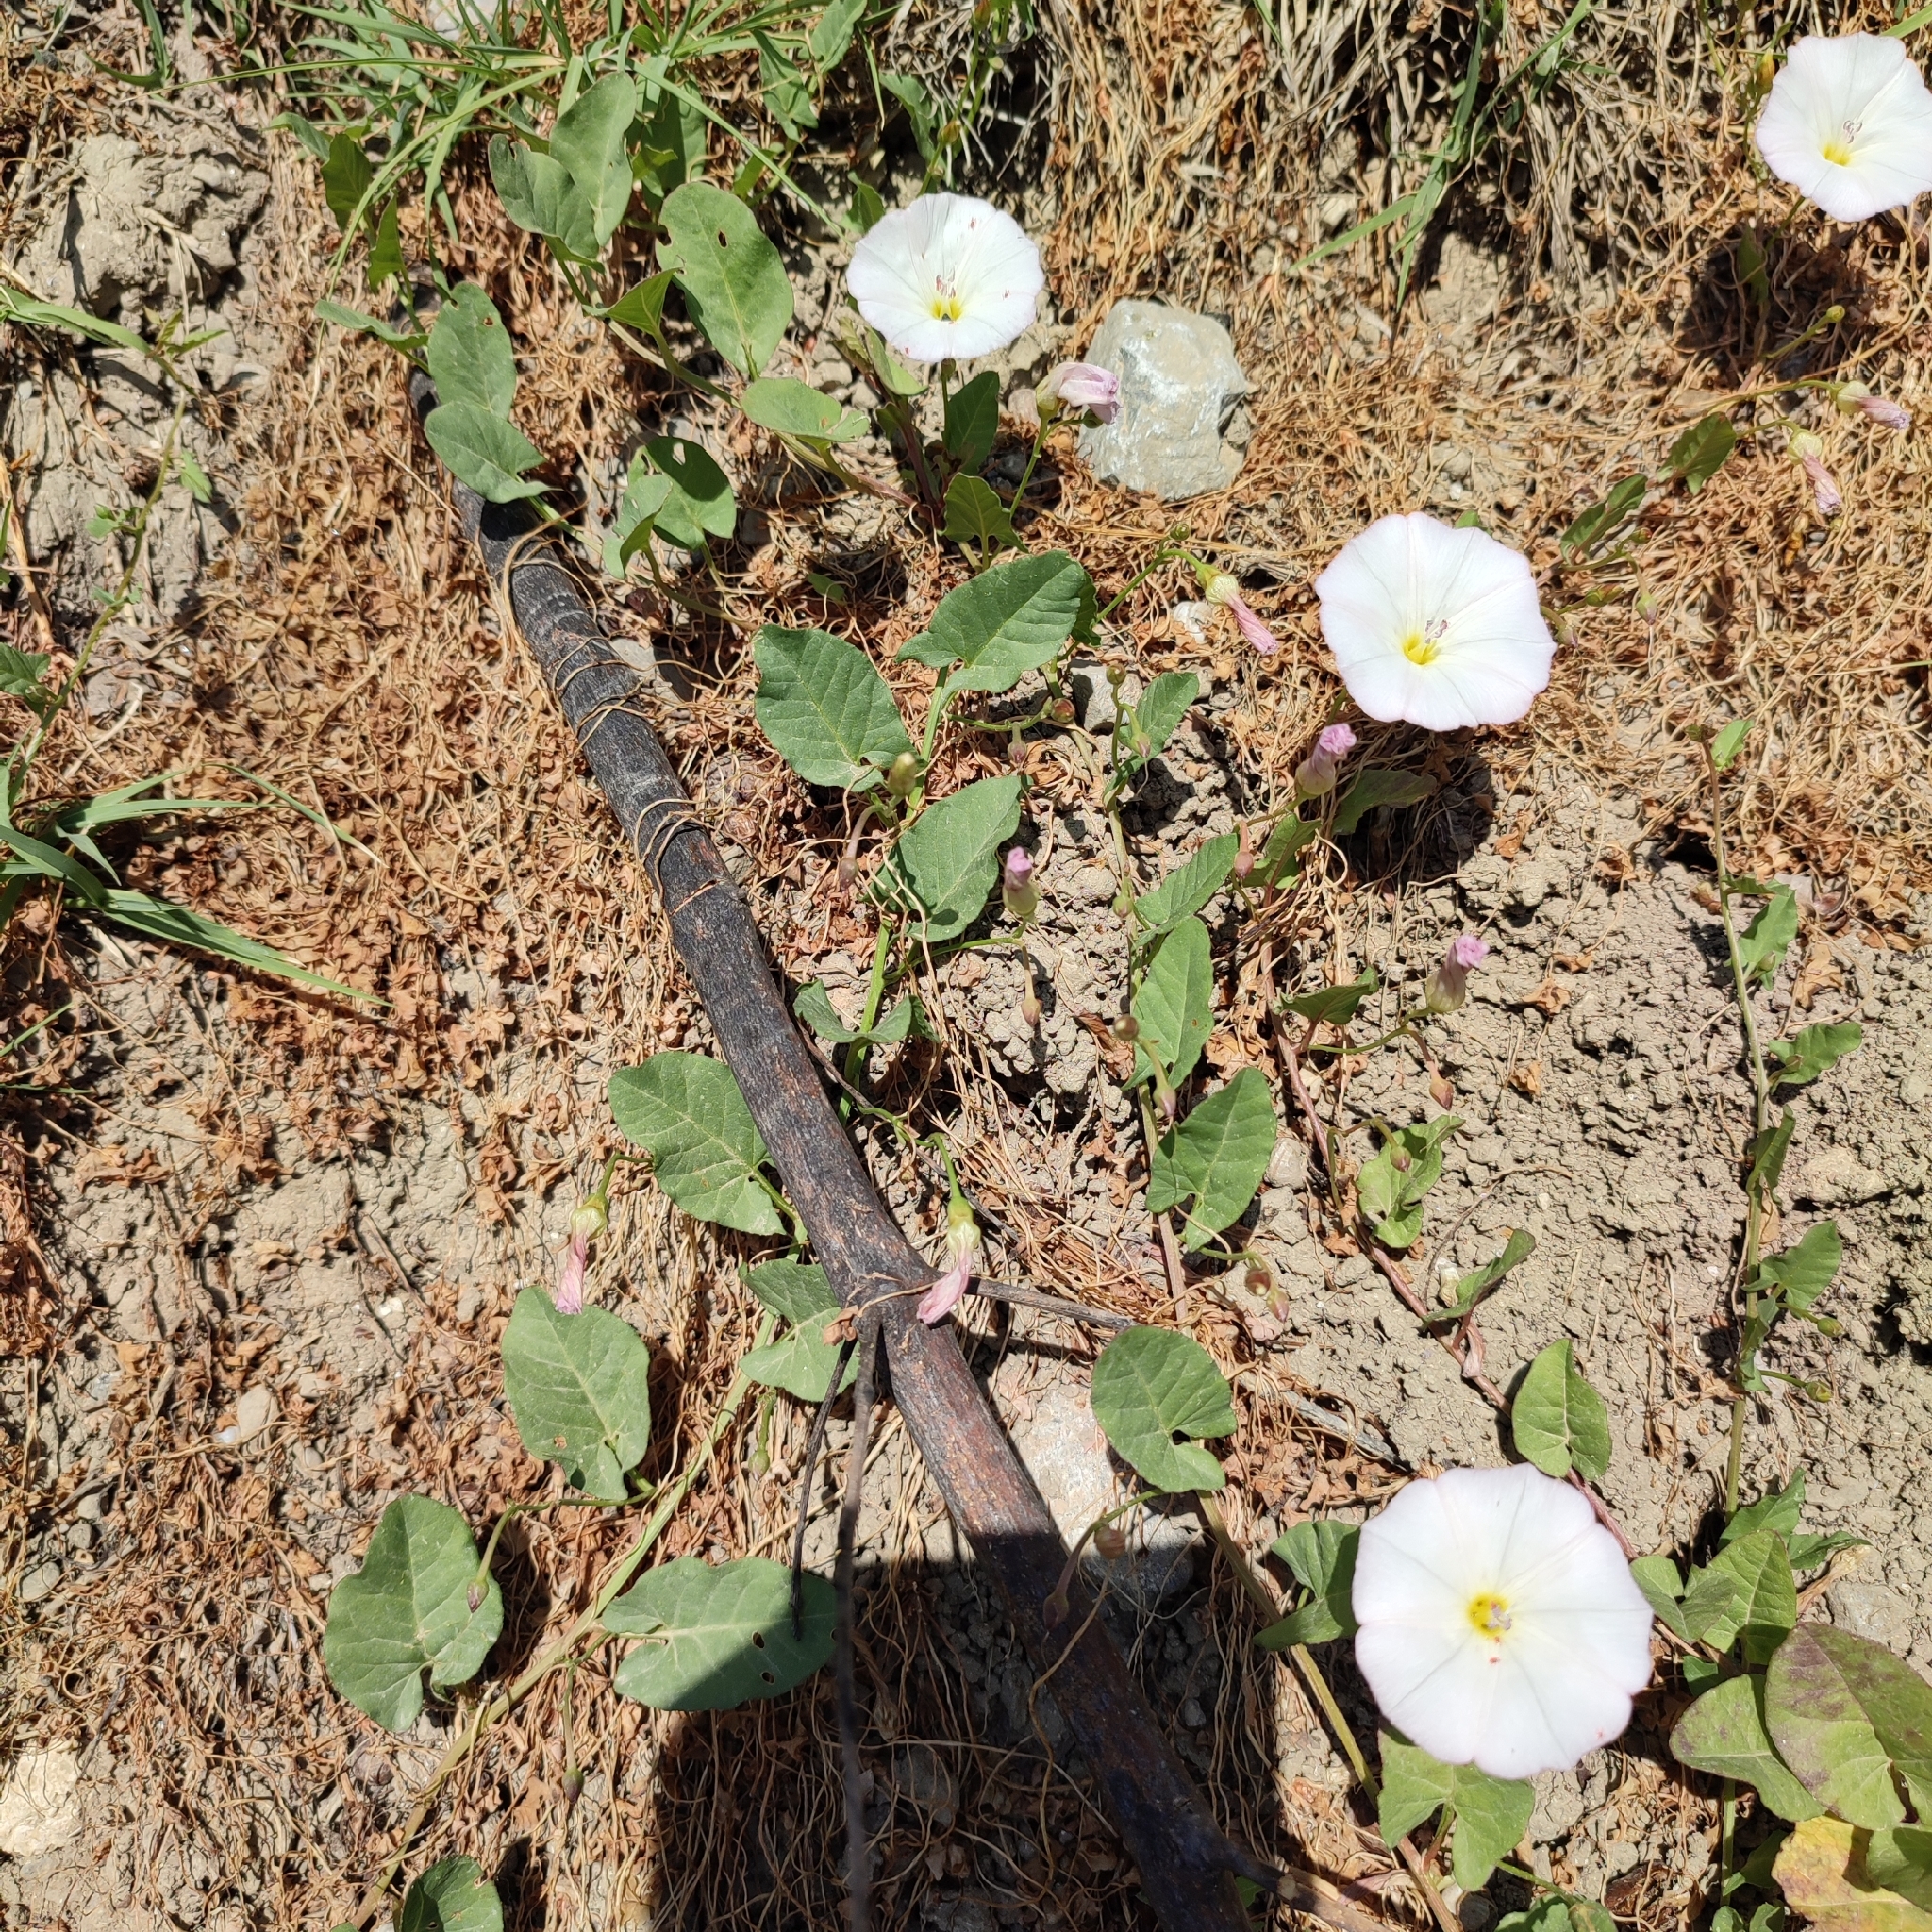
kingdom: Plantae
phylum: Tracheophyta
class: Magnoliopsida
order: Solanales
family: Convolvulaceae
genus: Convolvulus
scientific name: Convolvulus arvensis
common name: Field bindweed
